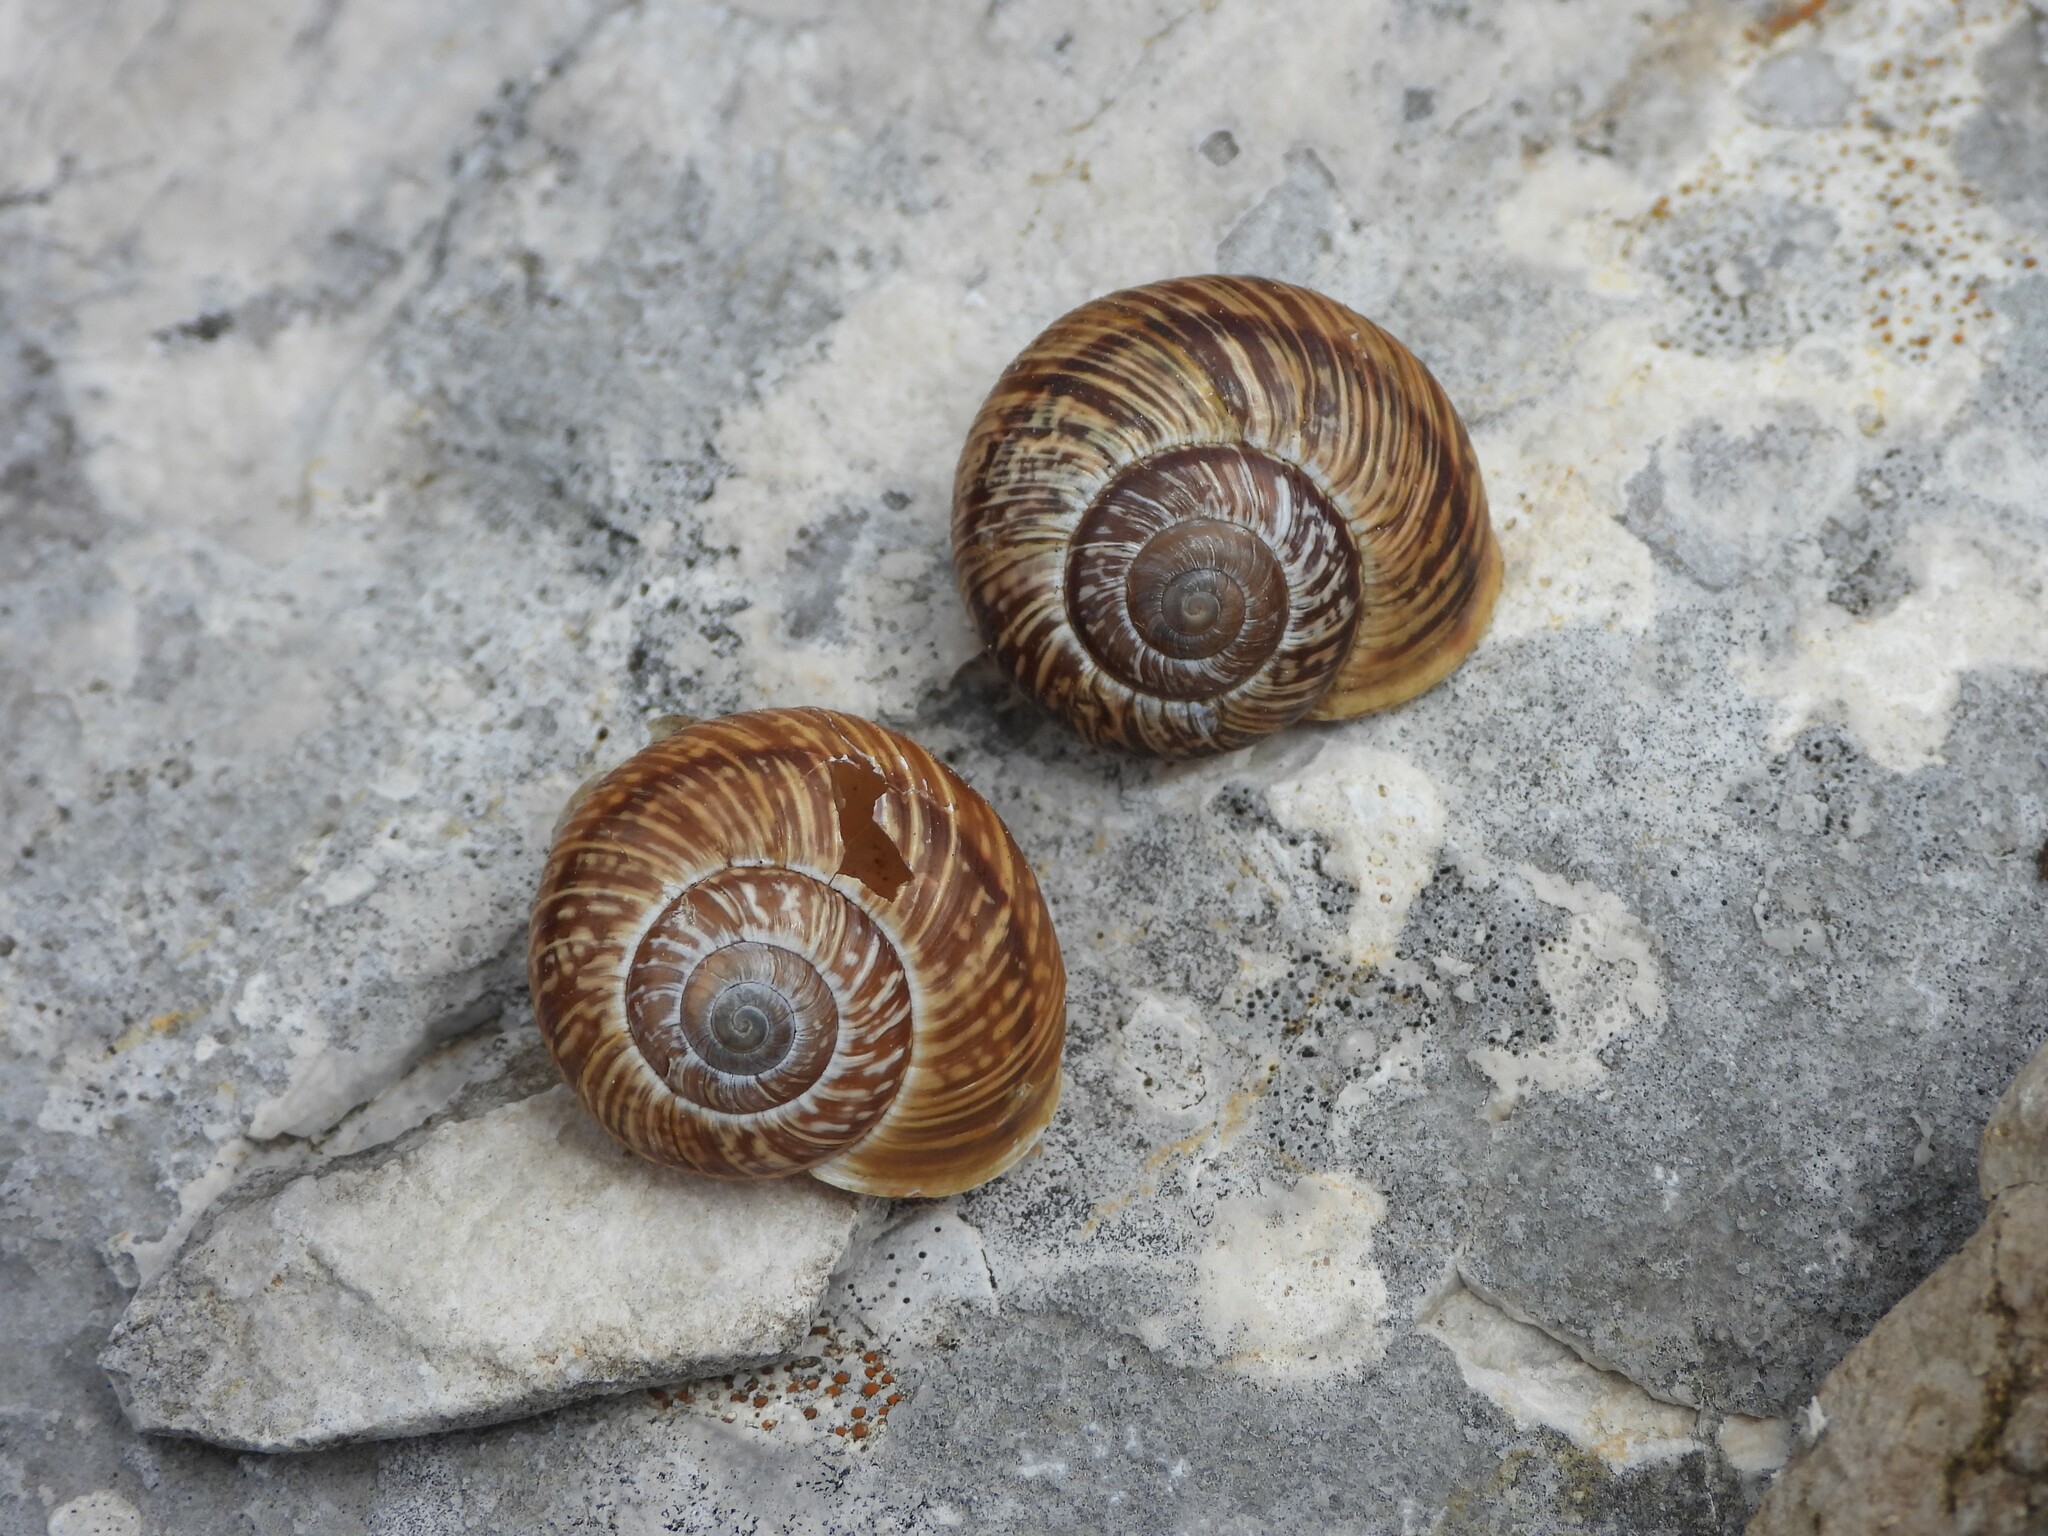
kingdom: Animalia
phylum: Mollusca
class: Gastropoda
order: Stylommatophora
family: Helicidae
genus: Arianta
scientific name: Arianta stenzii
